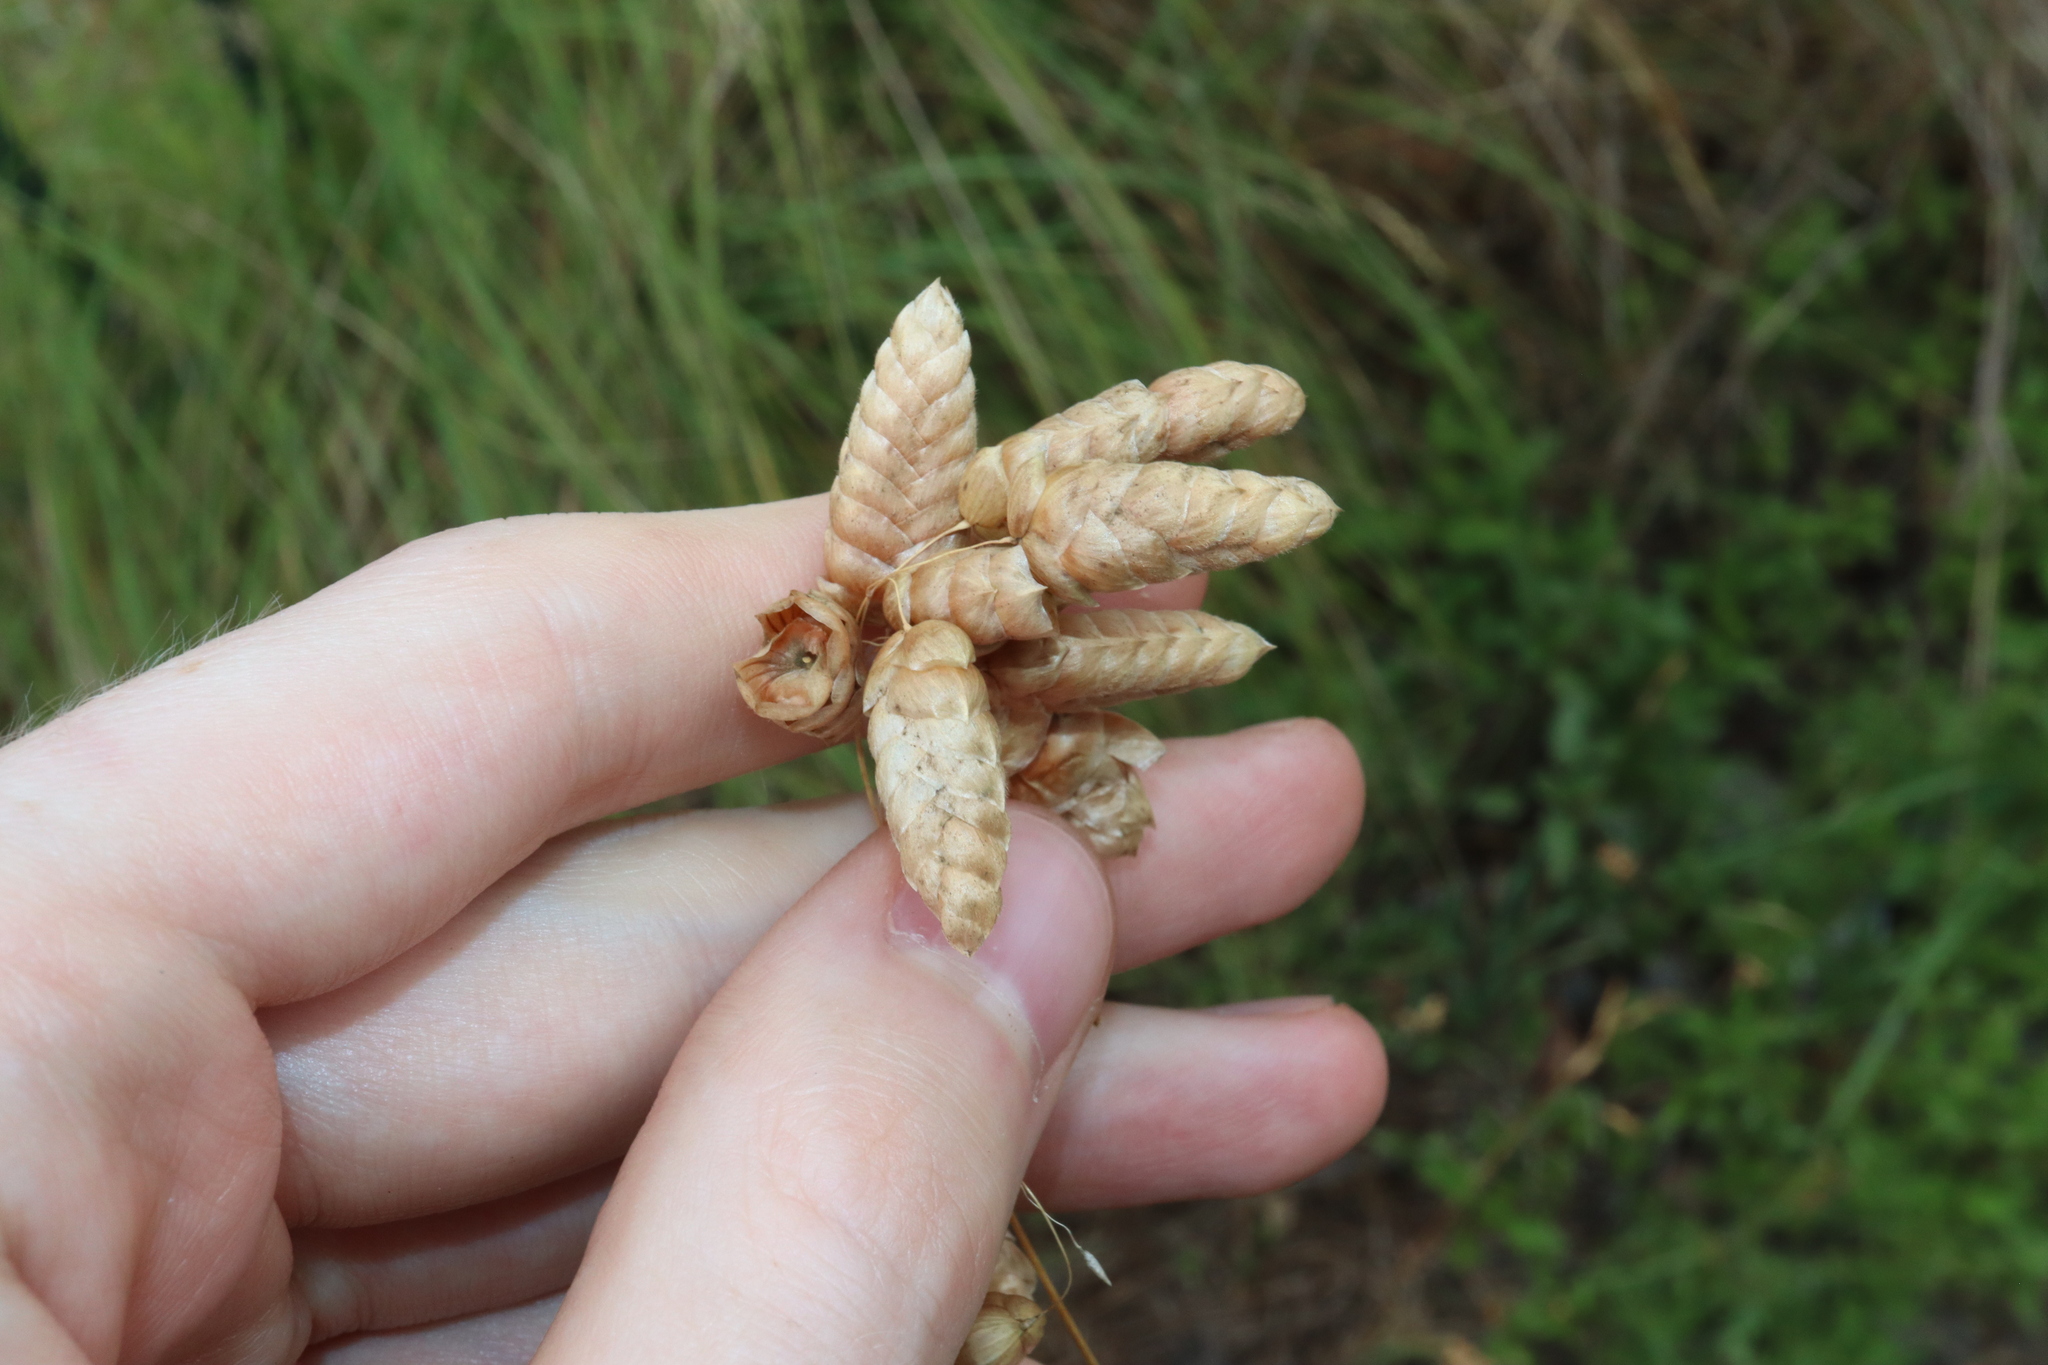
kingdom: Plantae
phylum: Tracheophyta
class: Liliopsida
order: Poales
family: Poaceae
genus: Briza
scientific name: Briza maxima
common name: Big quakinggrass
